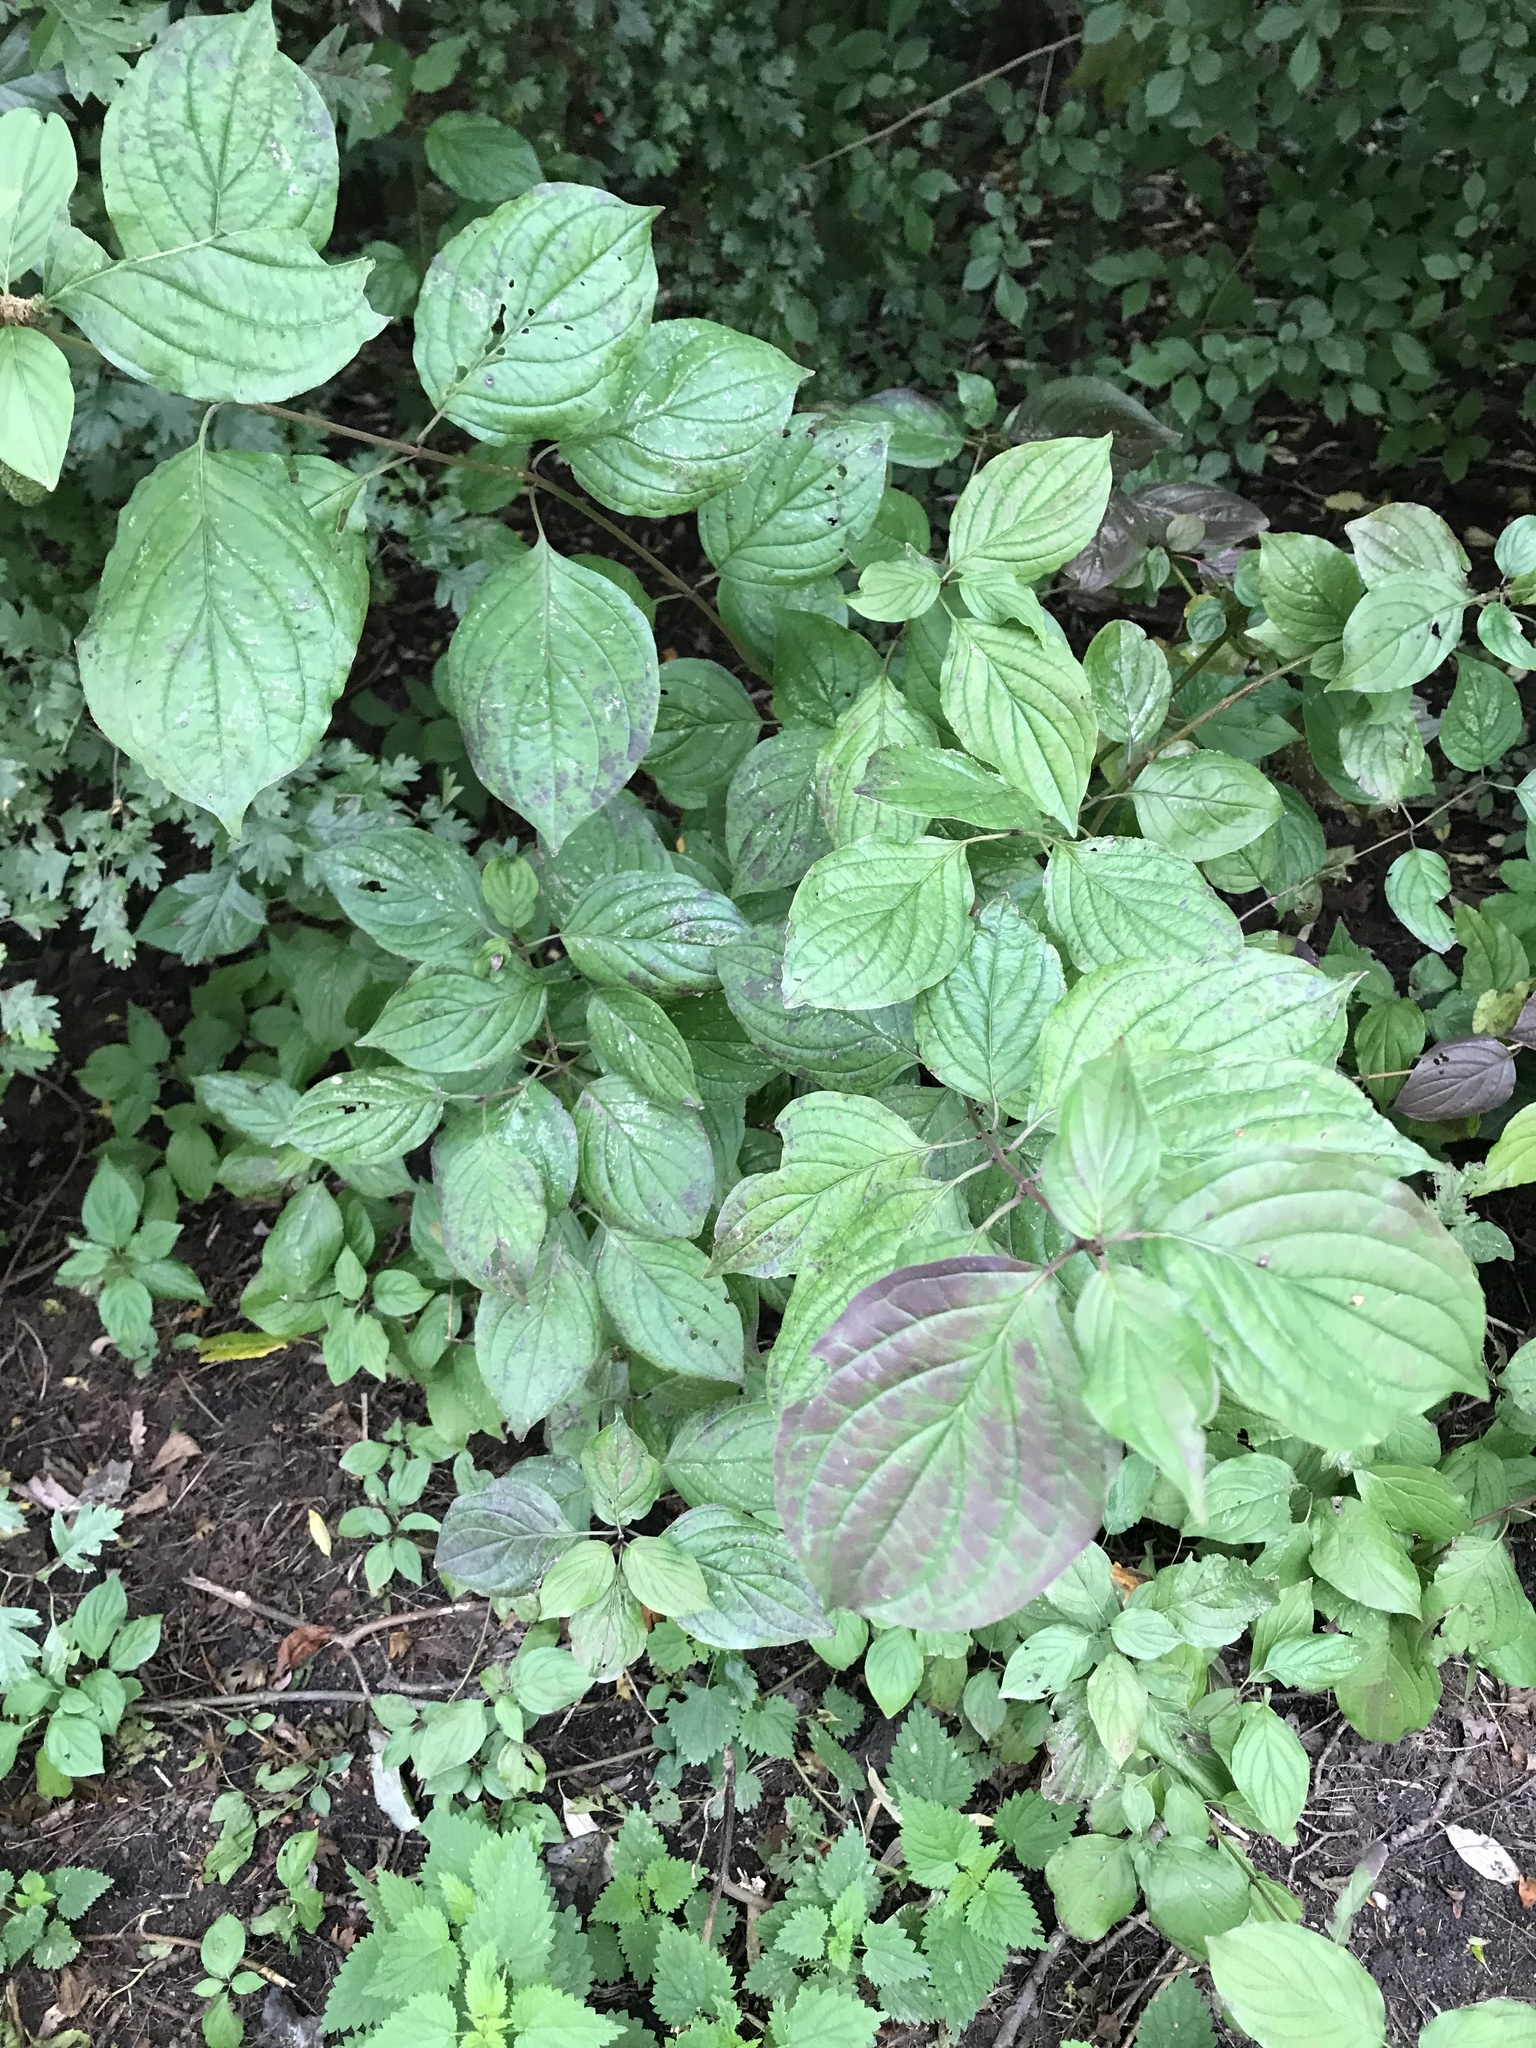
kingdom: Plantae
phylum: Tracheophyta
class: Magnoliopsida
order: Cornales
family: Cornaceae
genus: Cornus
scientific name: Cornus sanguinea
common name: Dogwood
